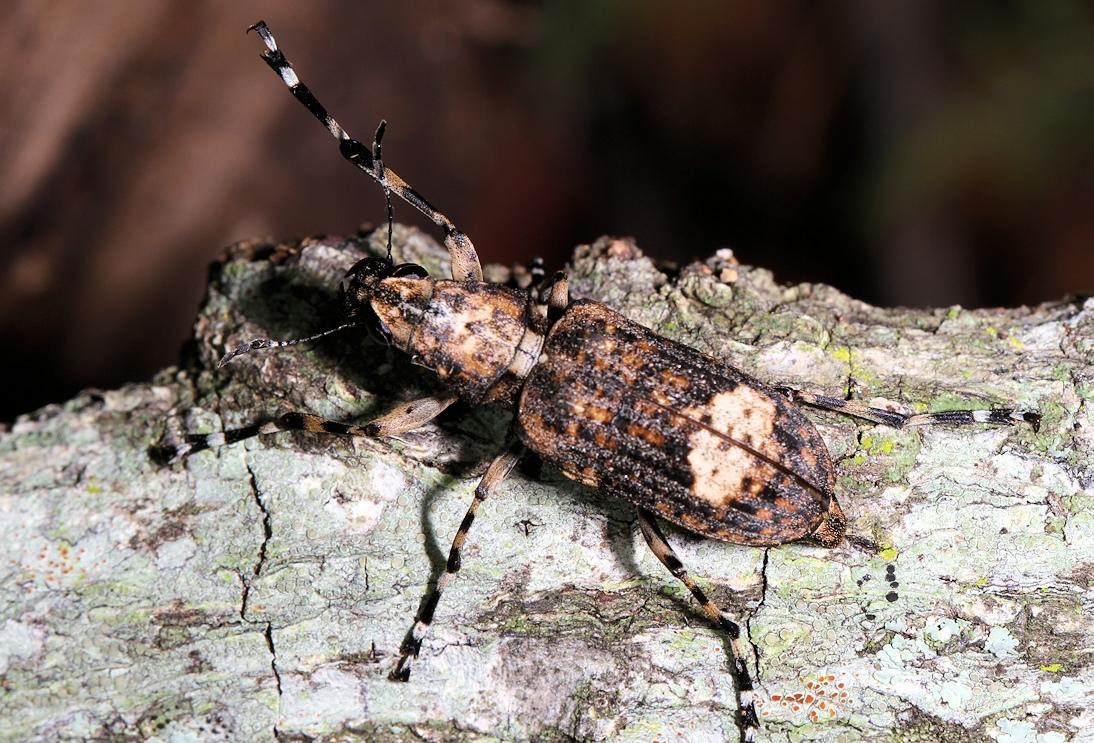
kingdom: Animalia
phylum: Arthropoda
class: Insecta
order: Coleoptera
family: Anthribidae
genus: Chirotenon
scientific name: Chirotenon longimanum
